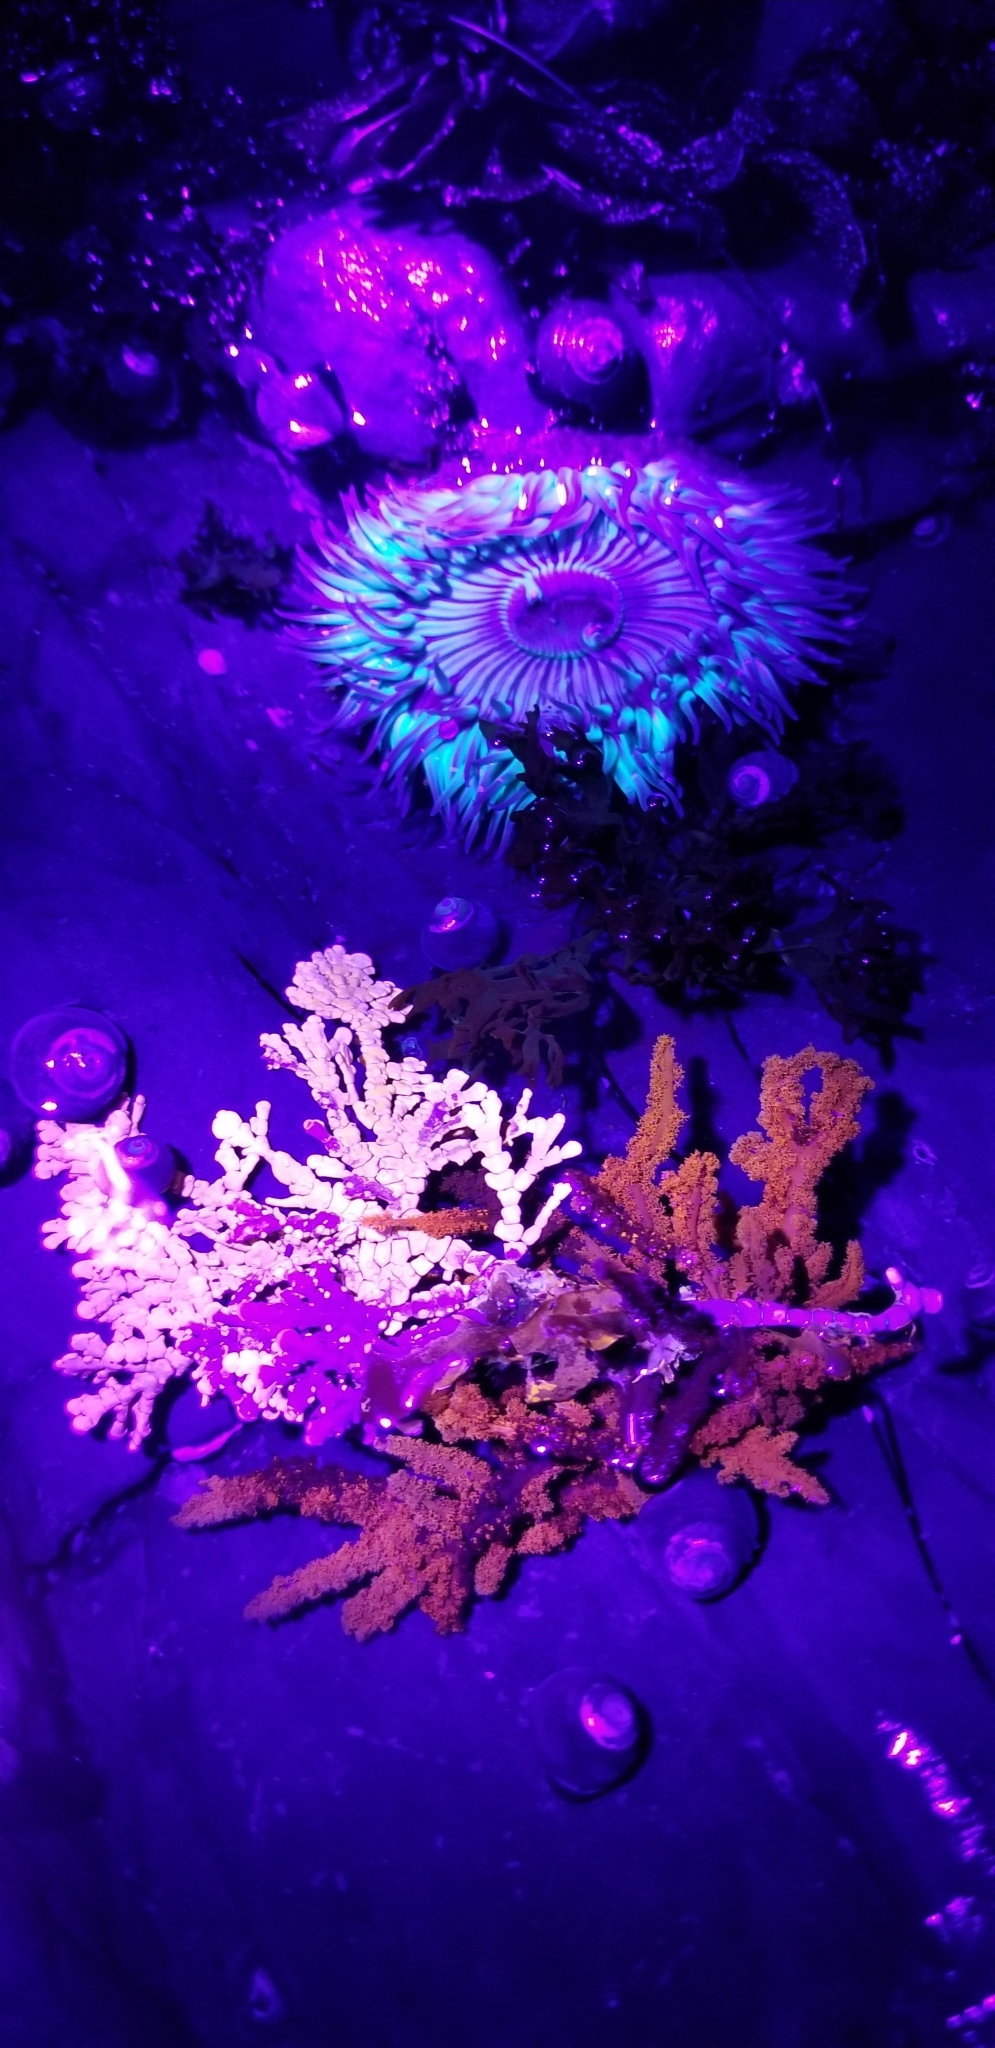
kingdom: Plantae
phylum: Rhodophyta
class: Florideophyceae
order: Corallinales
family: Corallinaceae
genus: Calliarthron
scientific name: Calliarthron tuberculosum
